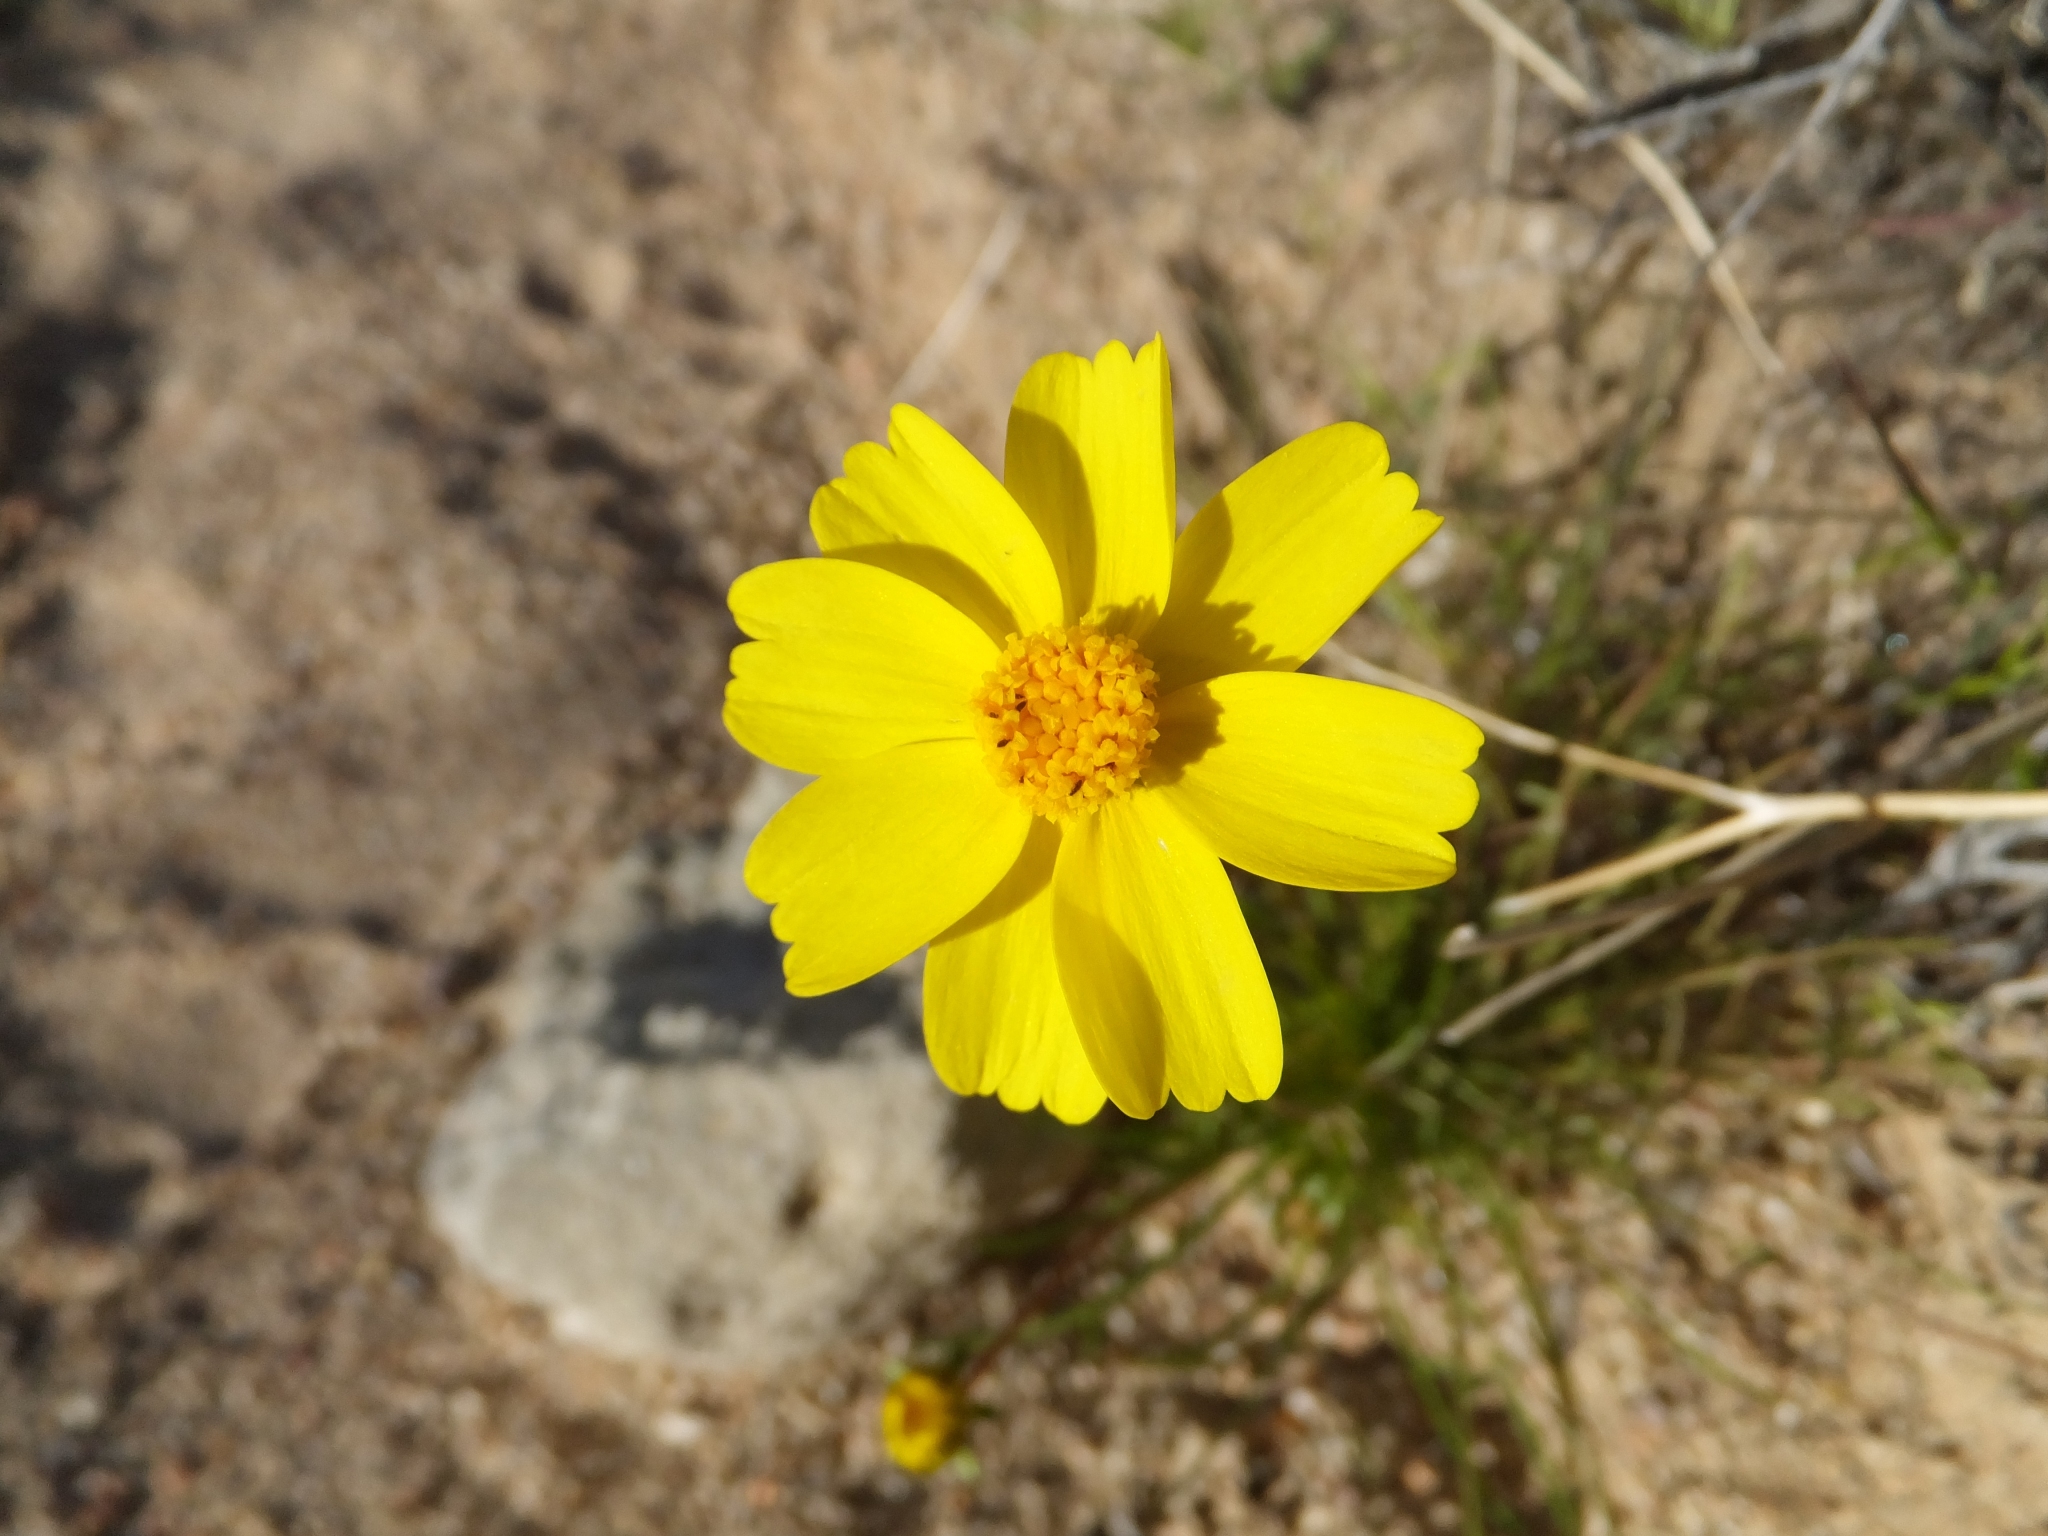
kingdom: Plantae
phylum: Tracheophyta
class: Magnoliopsida
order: Asterales
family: Asteraceae
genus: Coreopsis
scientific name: Coreopsis bigelovii
